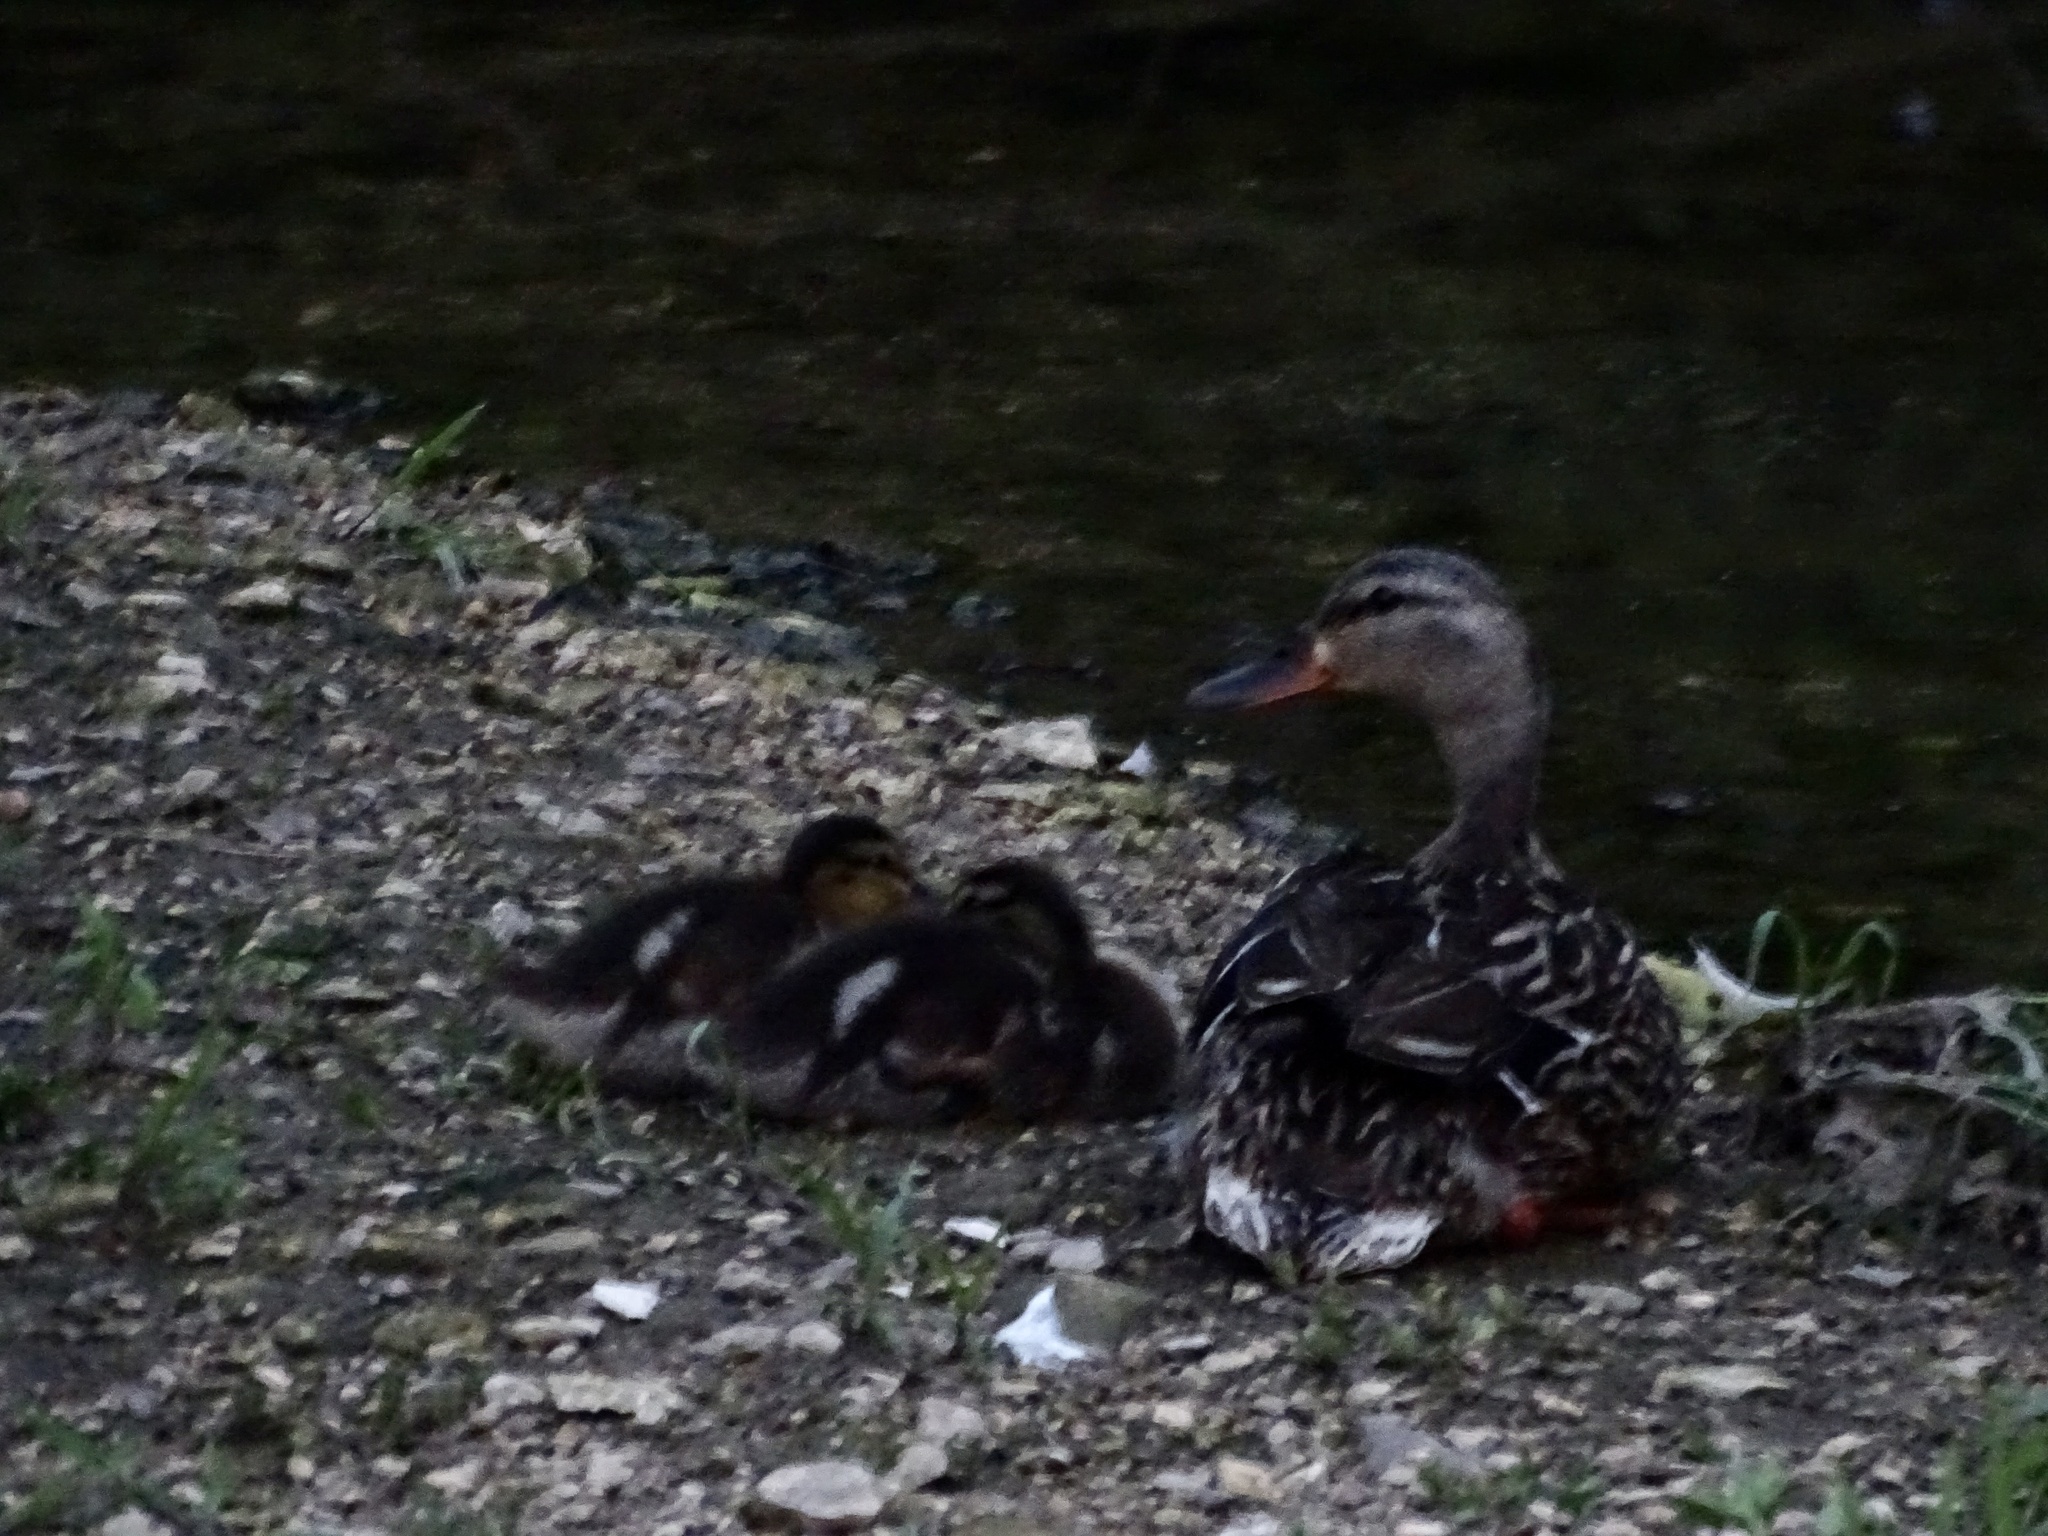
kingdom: Animalia
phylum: Chordata
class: Aves
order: Anseriformes
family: Anatidae
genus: Anas
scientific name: Anas platyrhynchos
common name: Mallard
